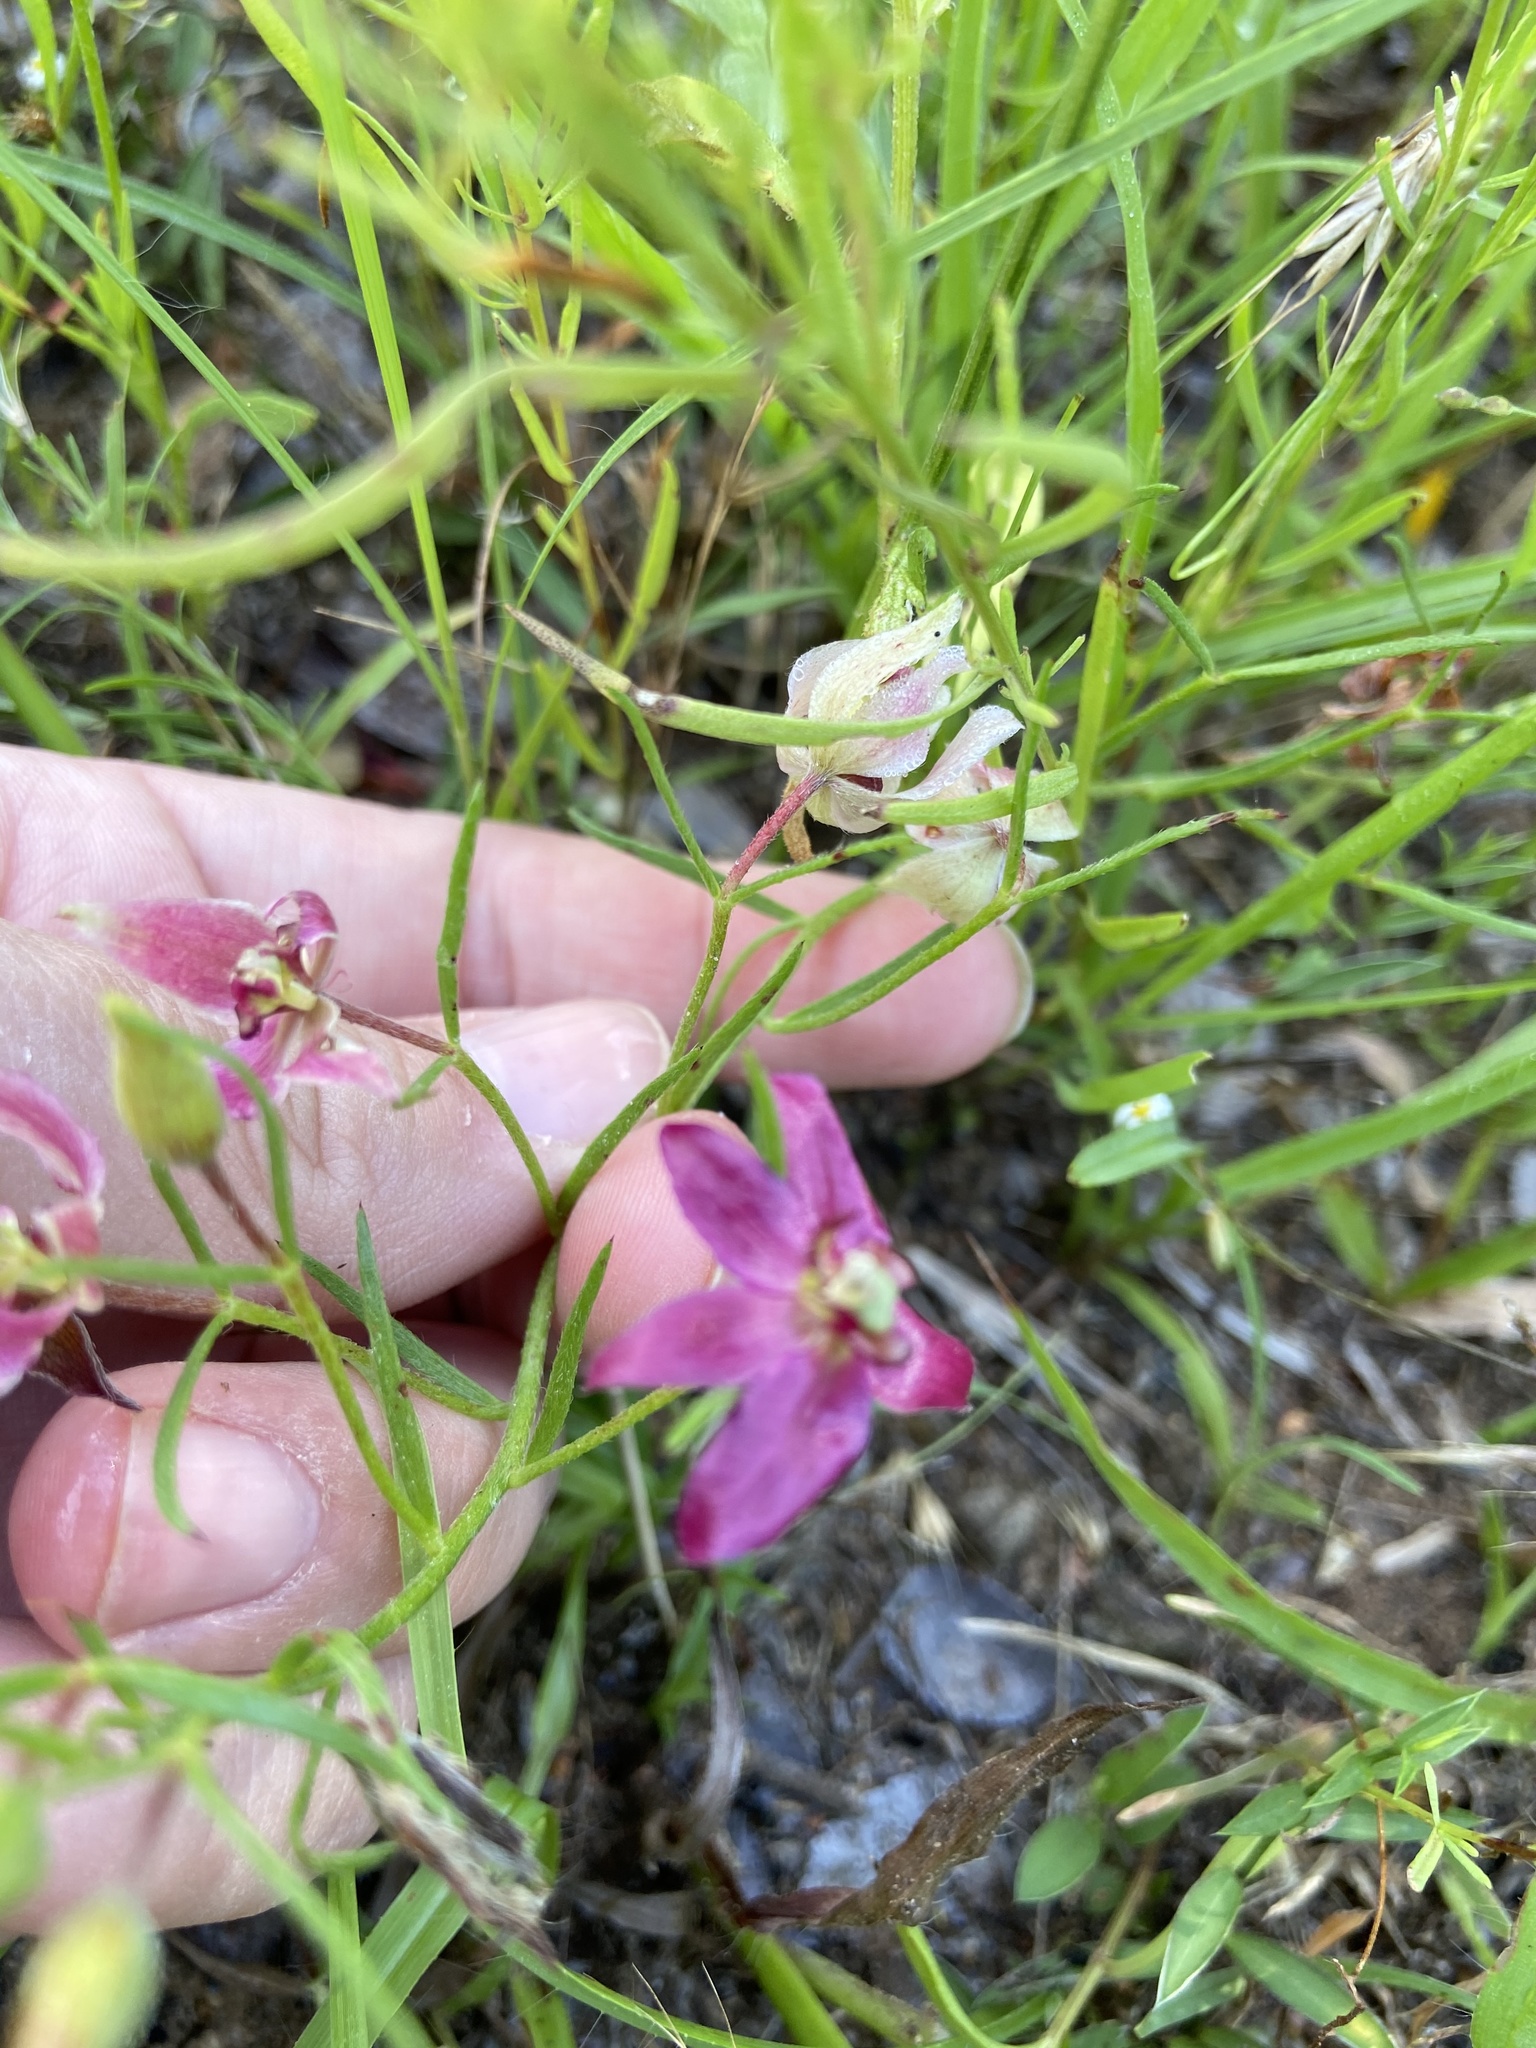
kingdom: Plantae
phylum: Tracheophyta
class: Magnoliopsida
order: Zygophyllales
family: Krameriaceae
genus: Krameria
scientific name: Krameria lanceolata
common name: Ratany
